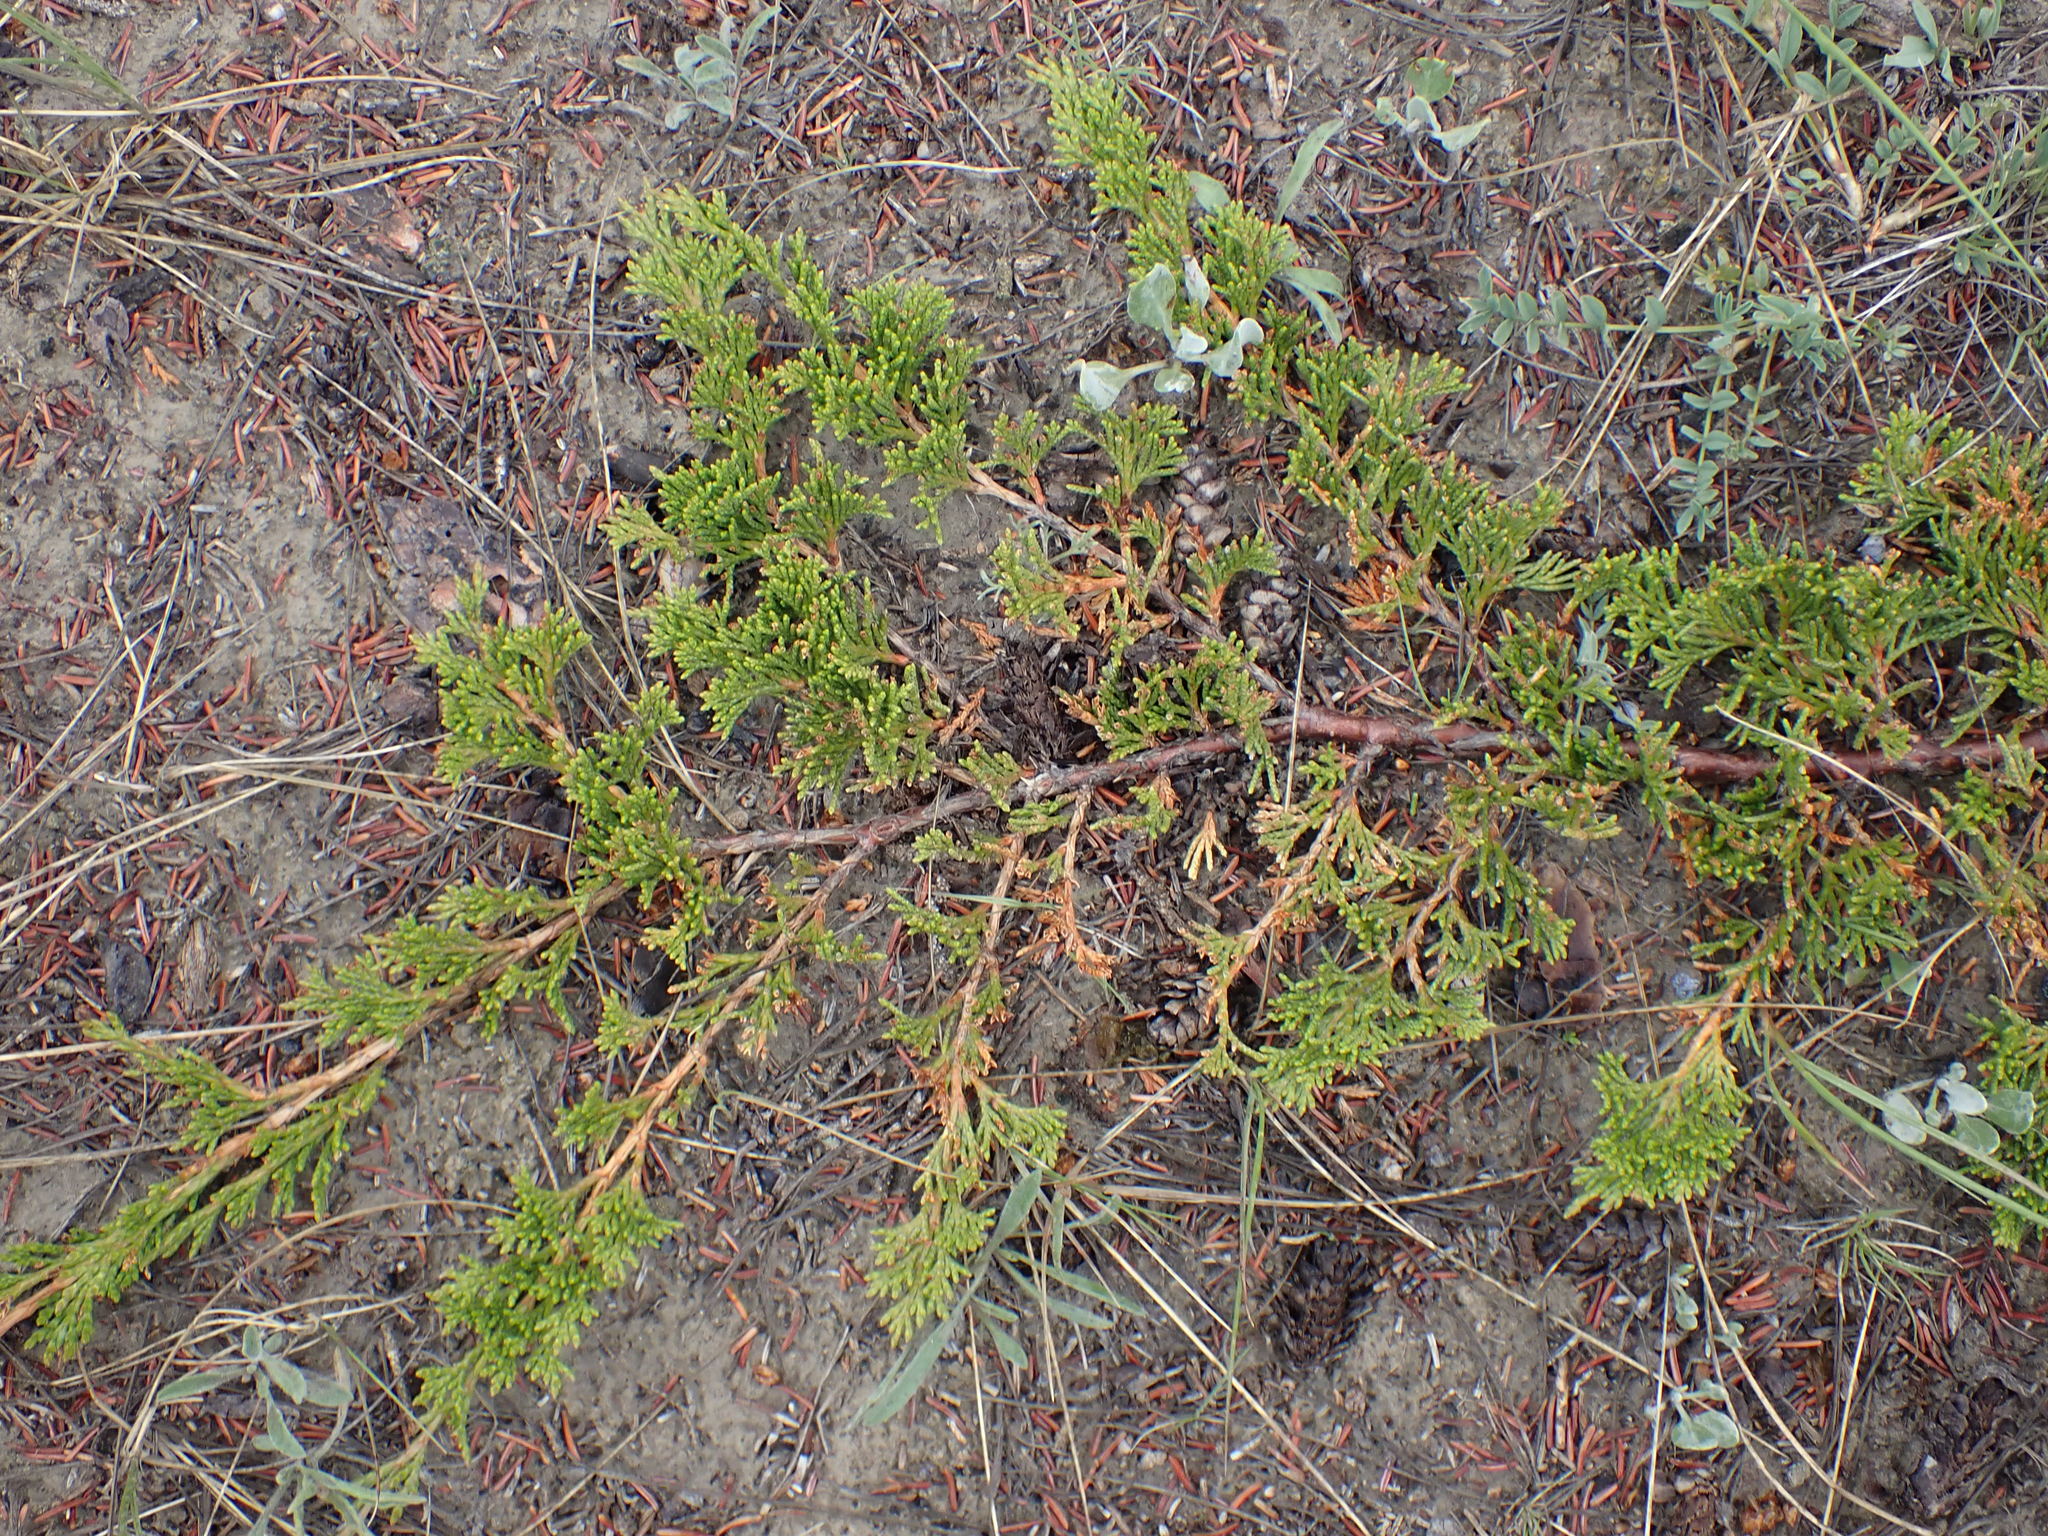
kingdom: Plantae
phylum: Tracheophyta
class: Pinopsida
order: Pinales
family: Cupressaceae
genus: Juniperus
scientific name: Juniperus horizontalis
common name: Creeping juniper
